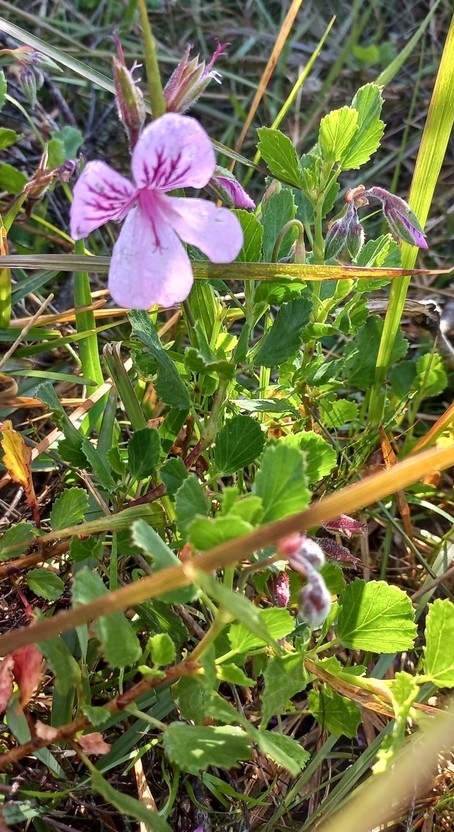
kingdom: Plantae
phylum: Tracheophyta
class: Magnoliopsida
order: Geraniales
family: Geraniaceae
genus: Pelargonium
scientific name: Pelargonium betulinum
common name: Birch-leaf pelargonium
